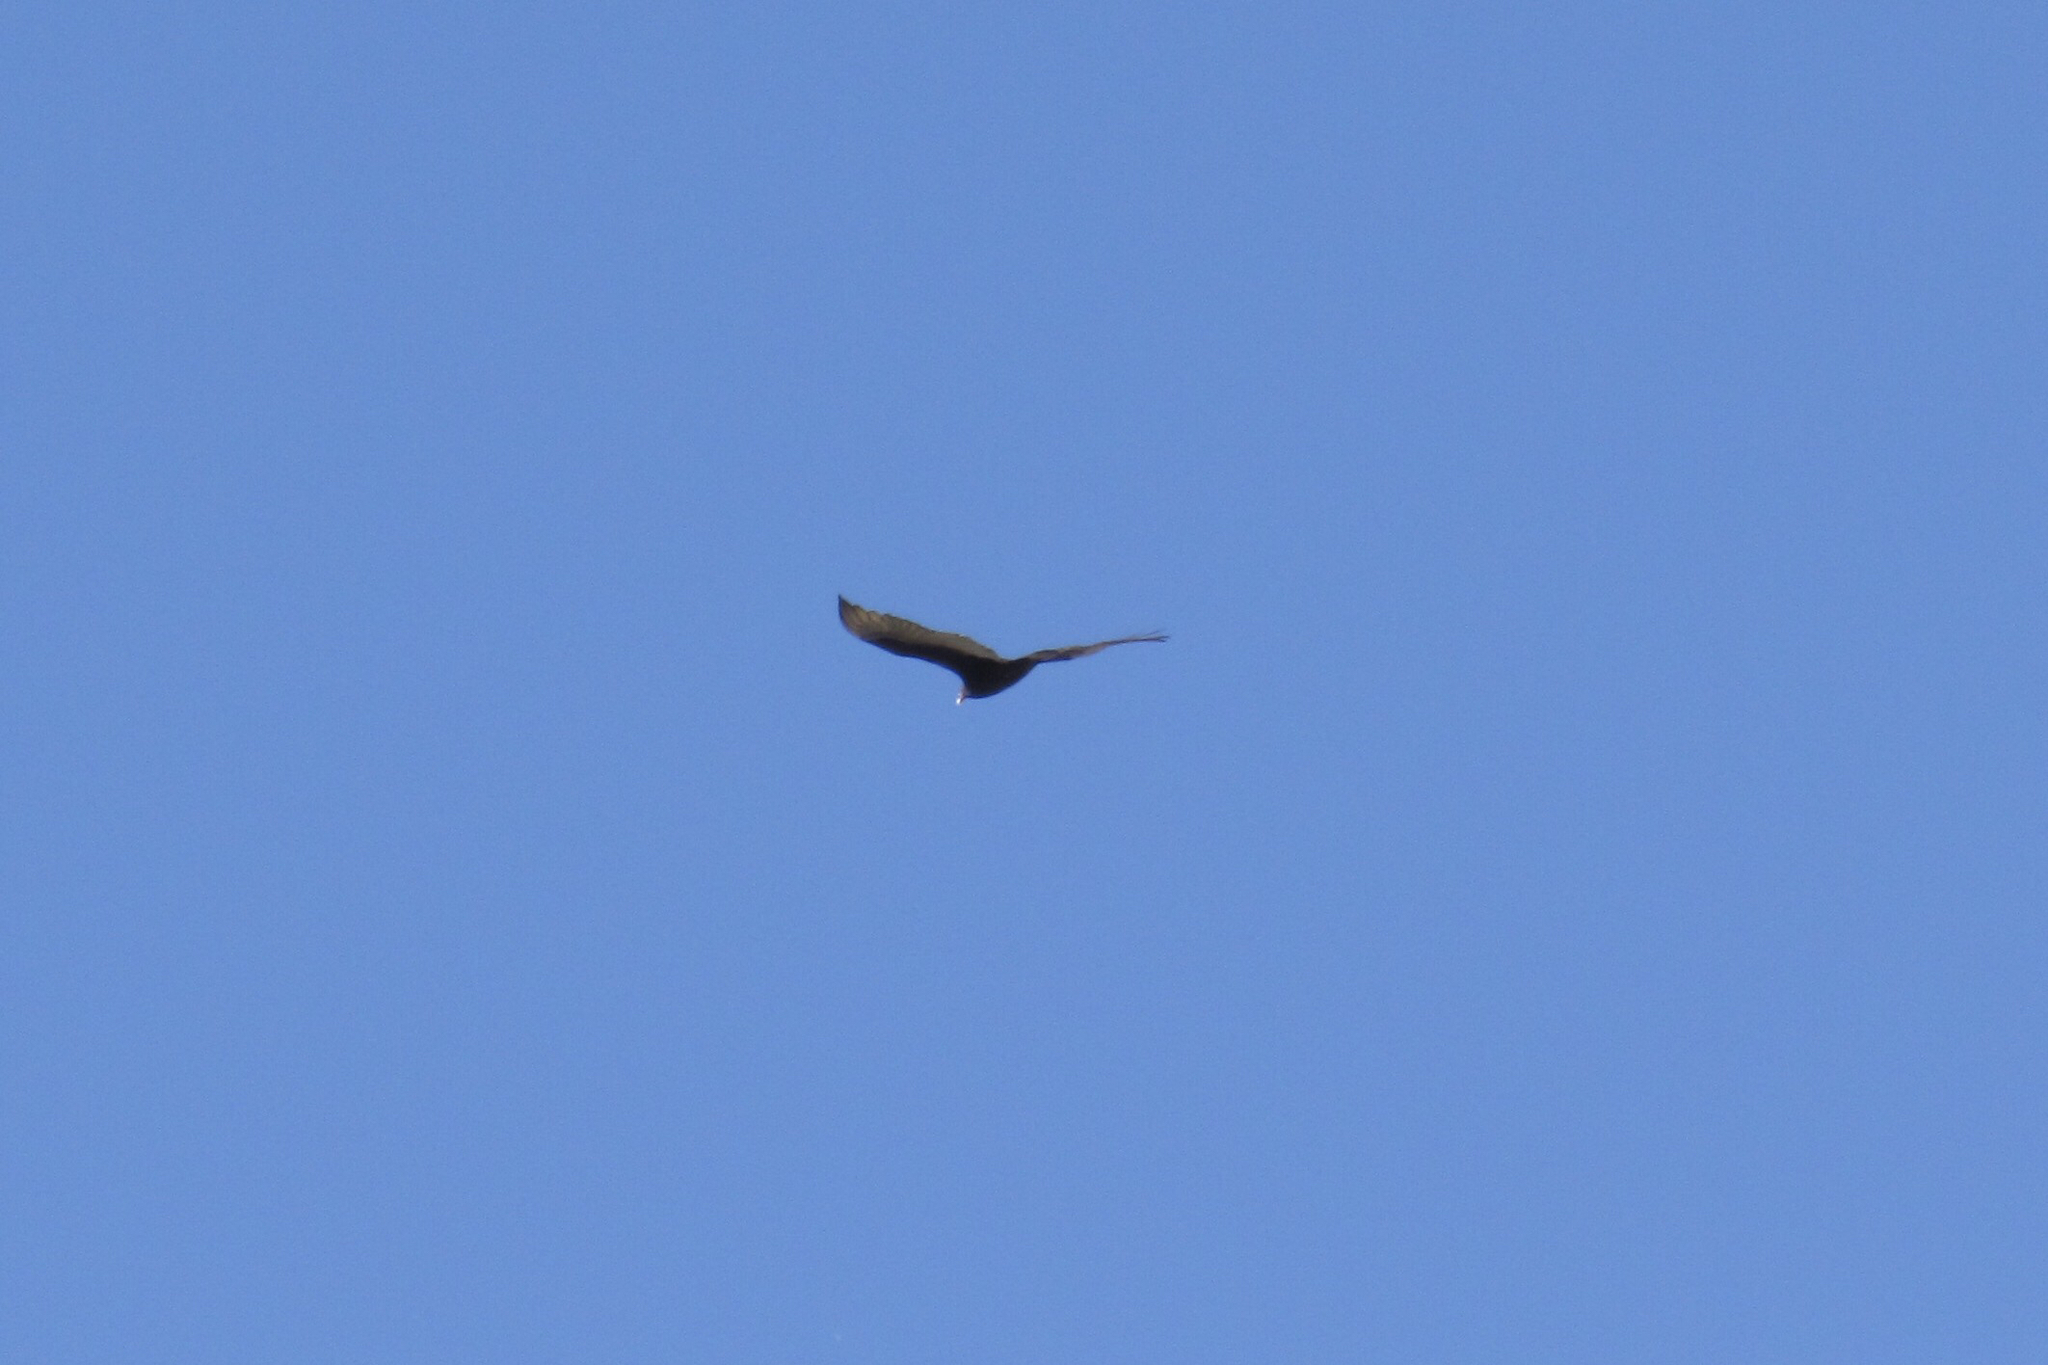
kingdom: Animalia
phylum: Chordata
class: Aves
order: Accipitriformes
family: Cathartidae
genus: Cathartes
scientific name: Cathartes aura
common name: Turkey vulture
